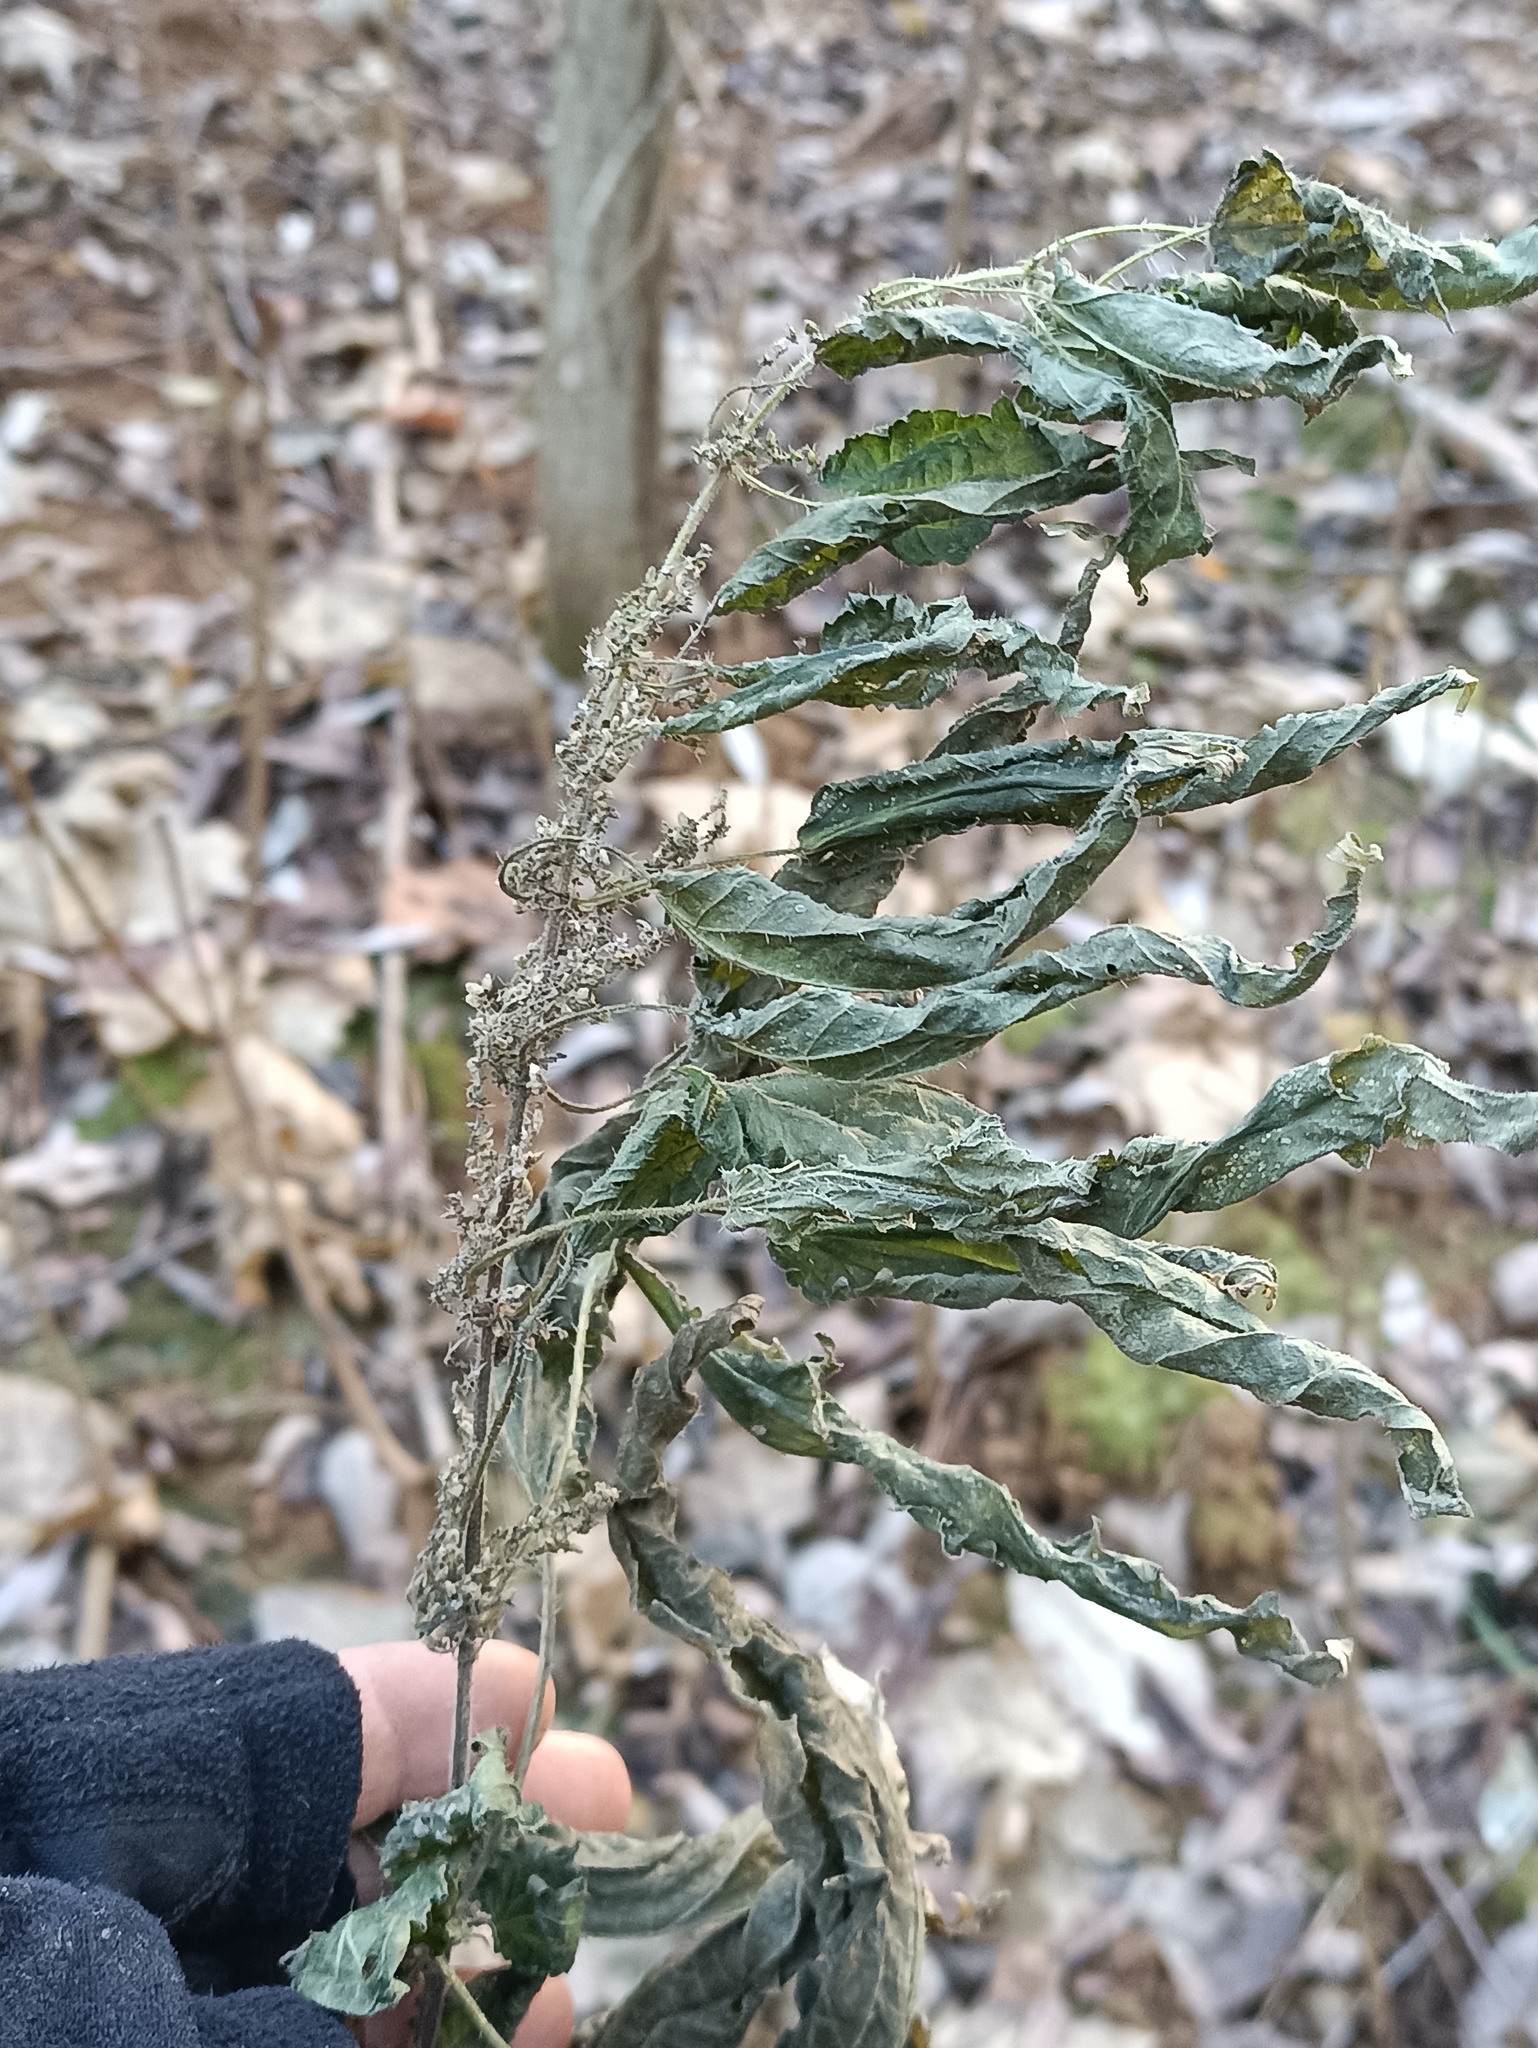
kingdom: Plantae
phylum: Tracheophyta
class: Magnoliopsida
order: Rosales
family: Urticaceae
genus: Urtica
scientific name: Urtica dioica
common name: Common nettle
